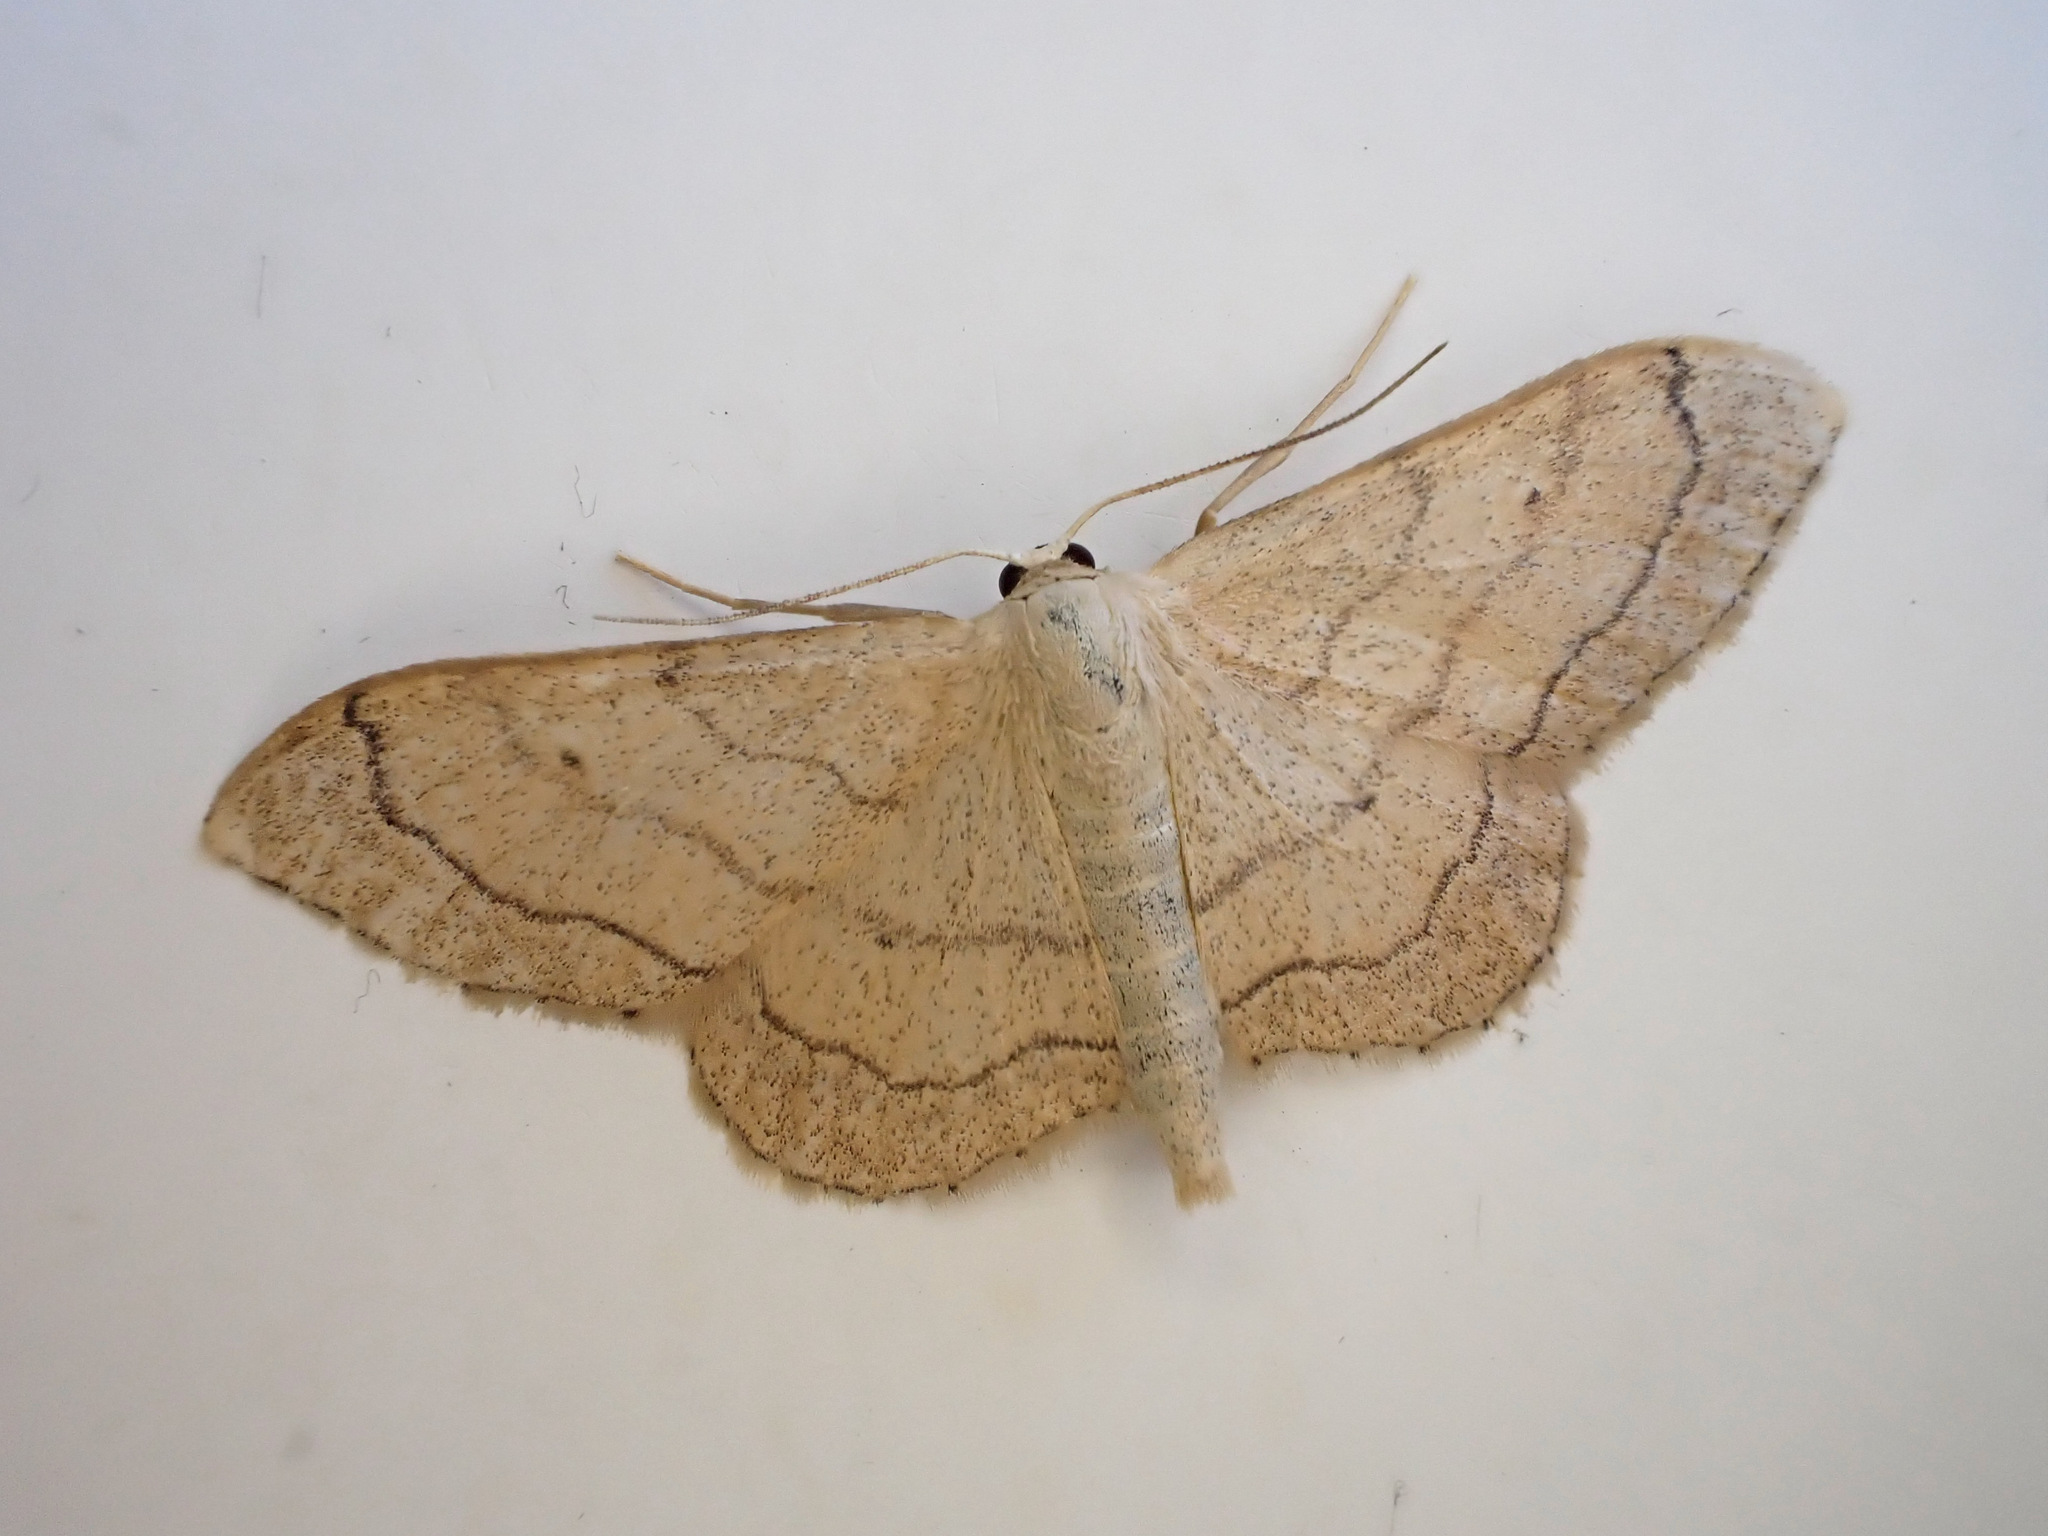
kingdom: Animalia
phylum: Arthropoda
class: Insecta
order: Lepidoptera
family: Geometridae
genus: Idaea
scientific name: Idaea aversata
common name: Riband wave
